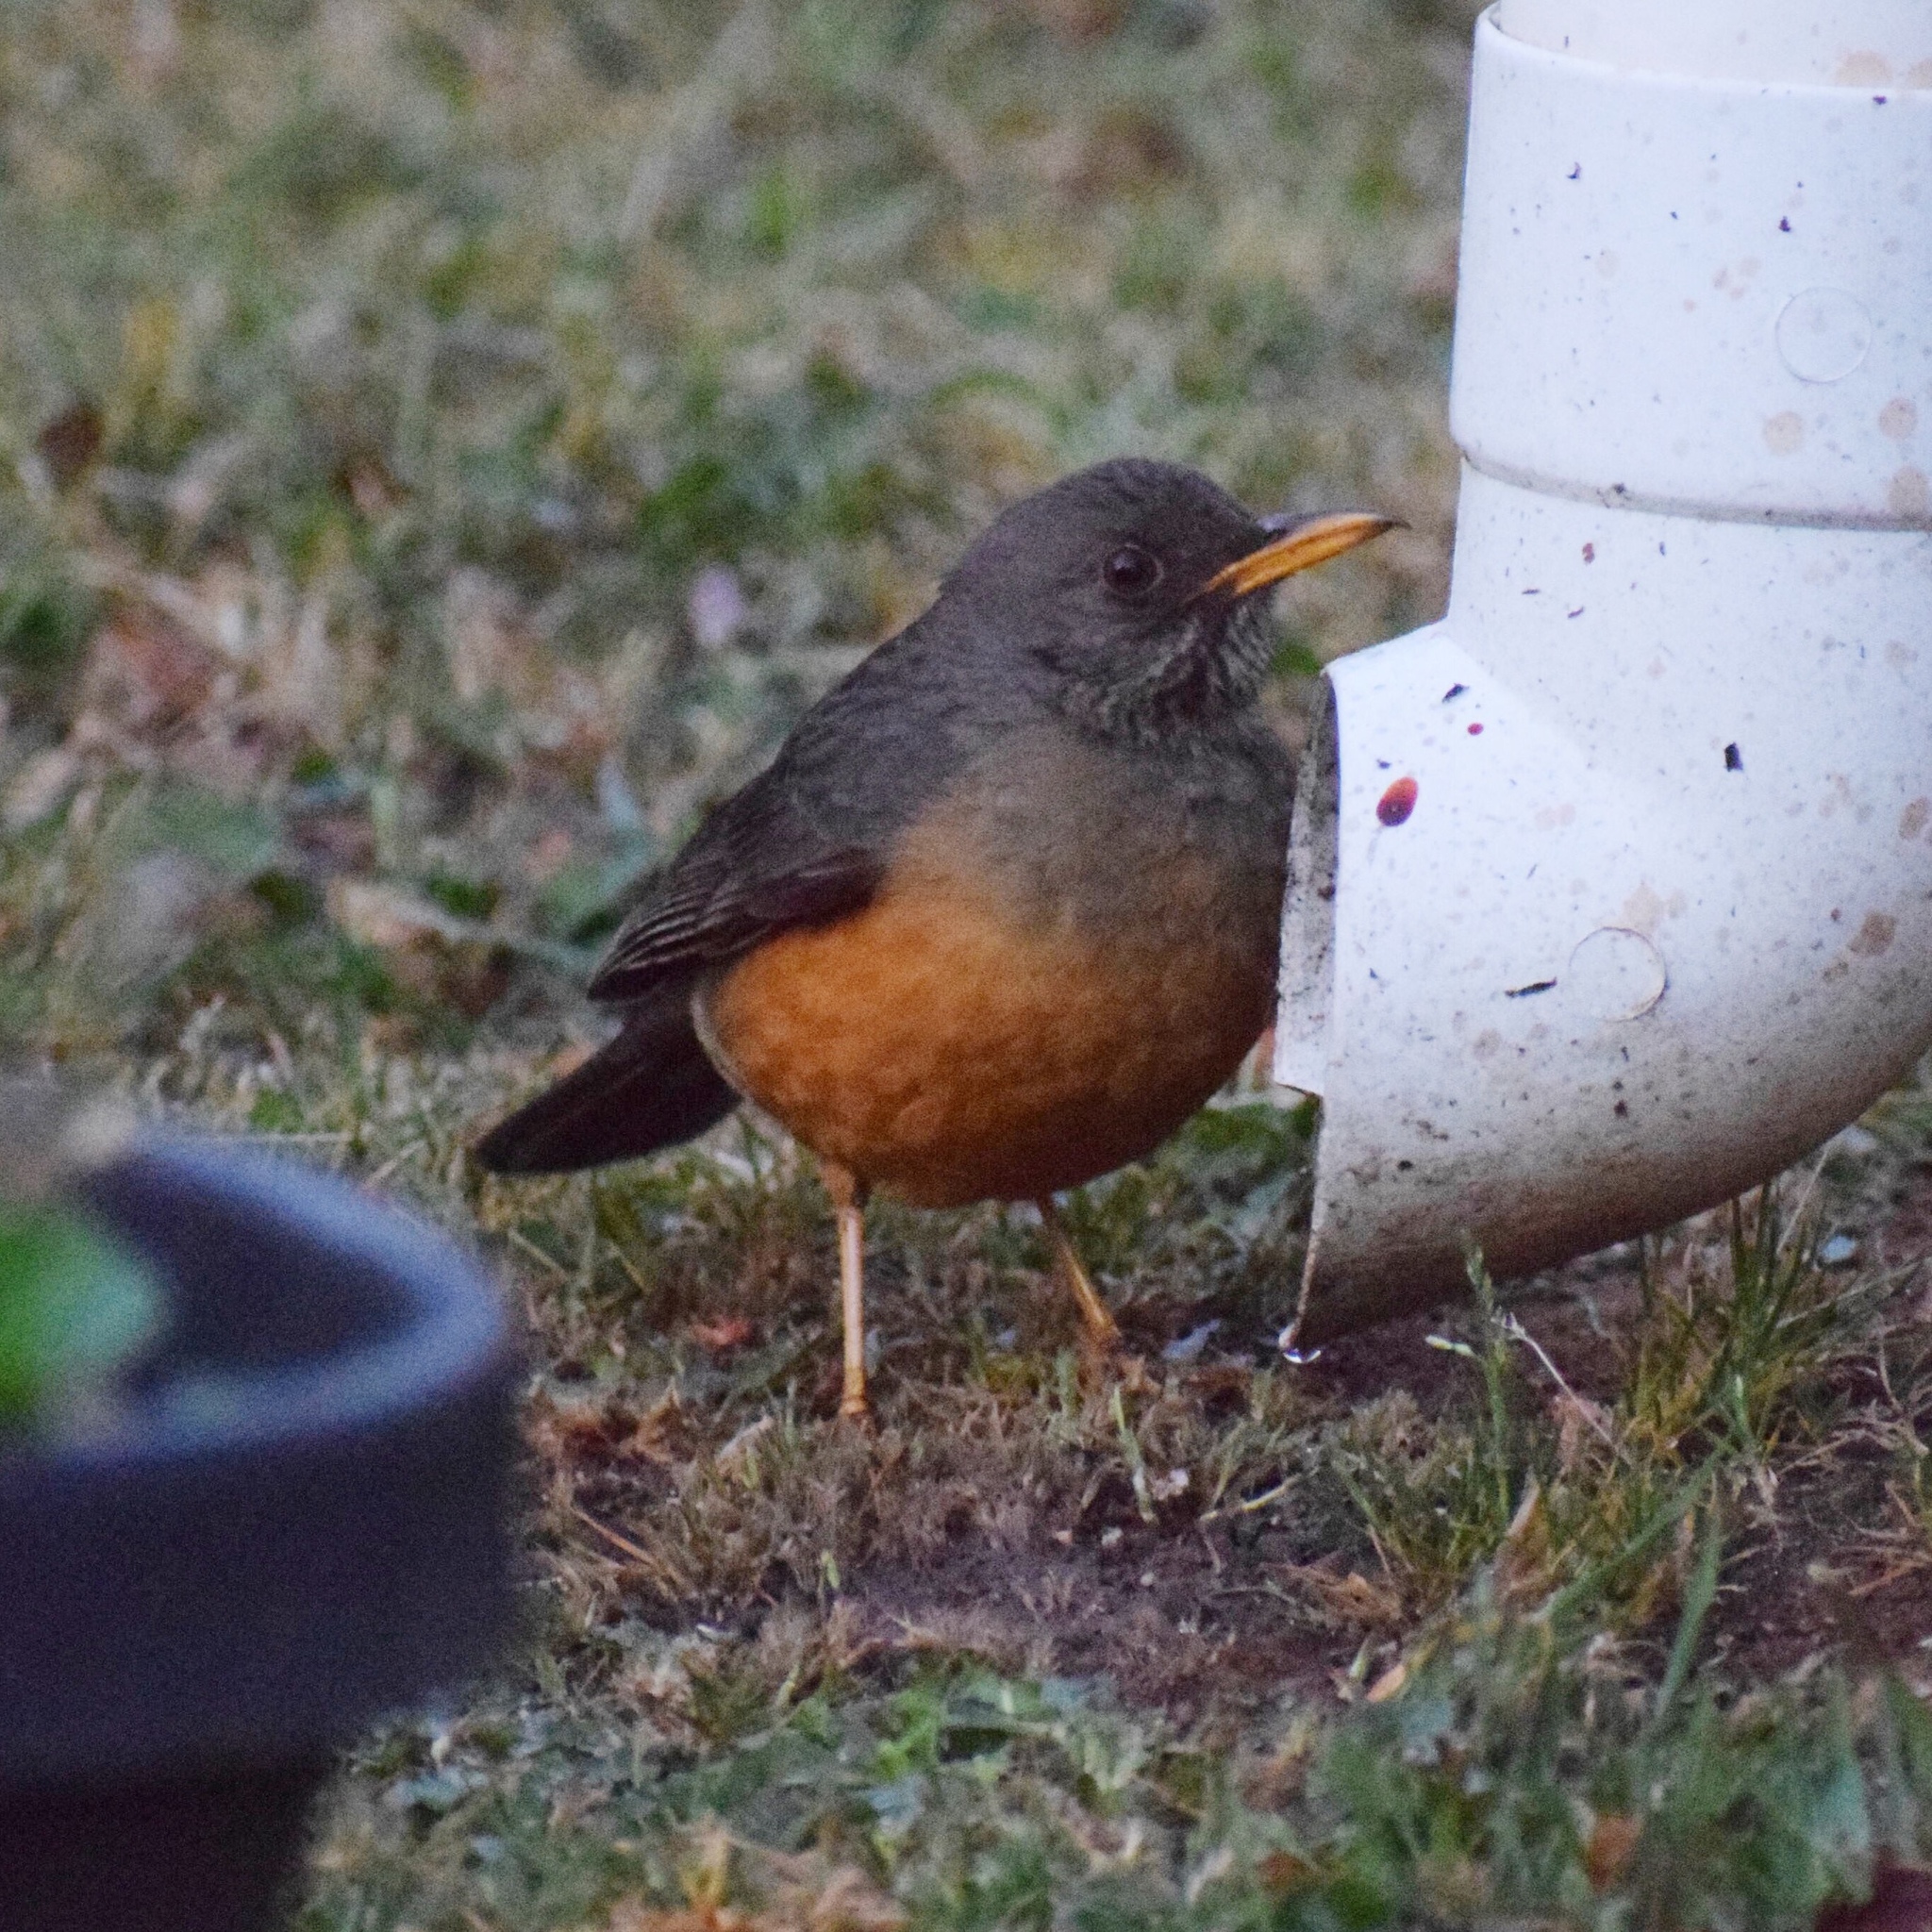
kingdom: Animalia
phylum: Chordata
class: Aves
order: Passeriformes
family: Turdidae
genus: Turdus
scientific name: Turdus olivaceus
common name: Olive thrush
